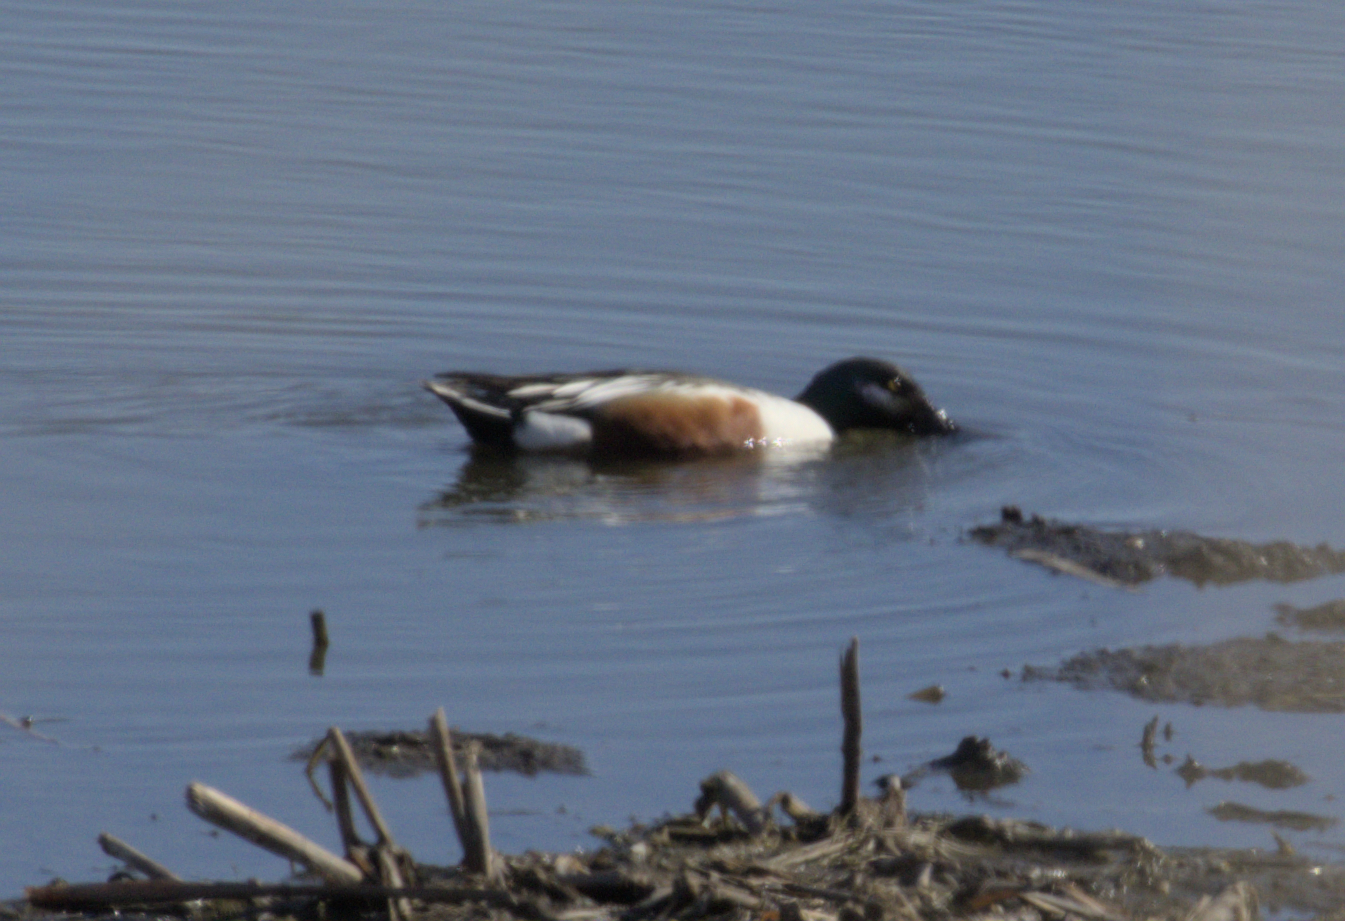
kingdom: Animalia
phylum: Chordata
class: Aves
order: Anseriformes
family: Anatidae
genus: Spatula
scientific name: Spatula clypeata
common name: Northern shoveler
